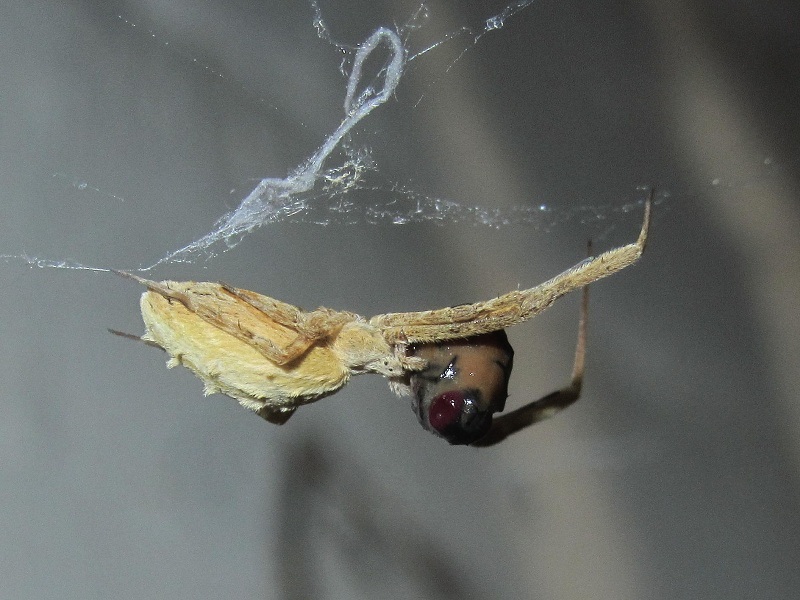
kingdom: Animalia
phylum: Arthropoda
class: Arachnida
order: Araneae
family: Uloboridae
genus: Uloborus
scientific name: Uloborus walckenaerius
